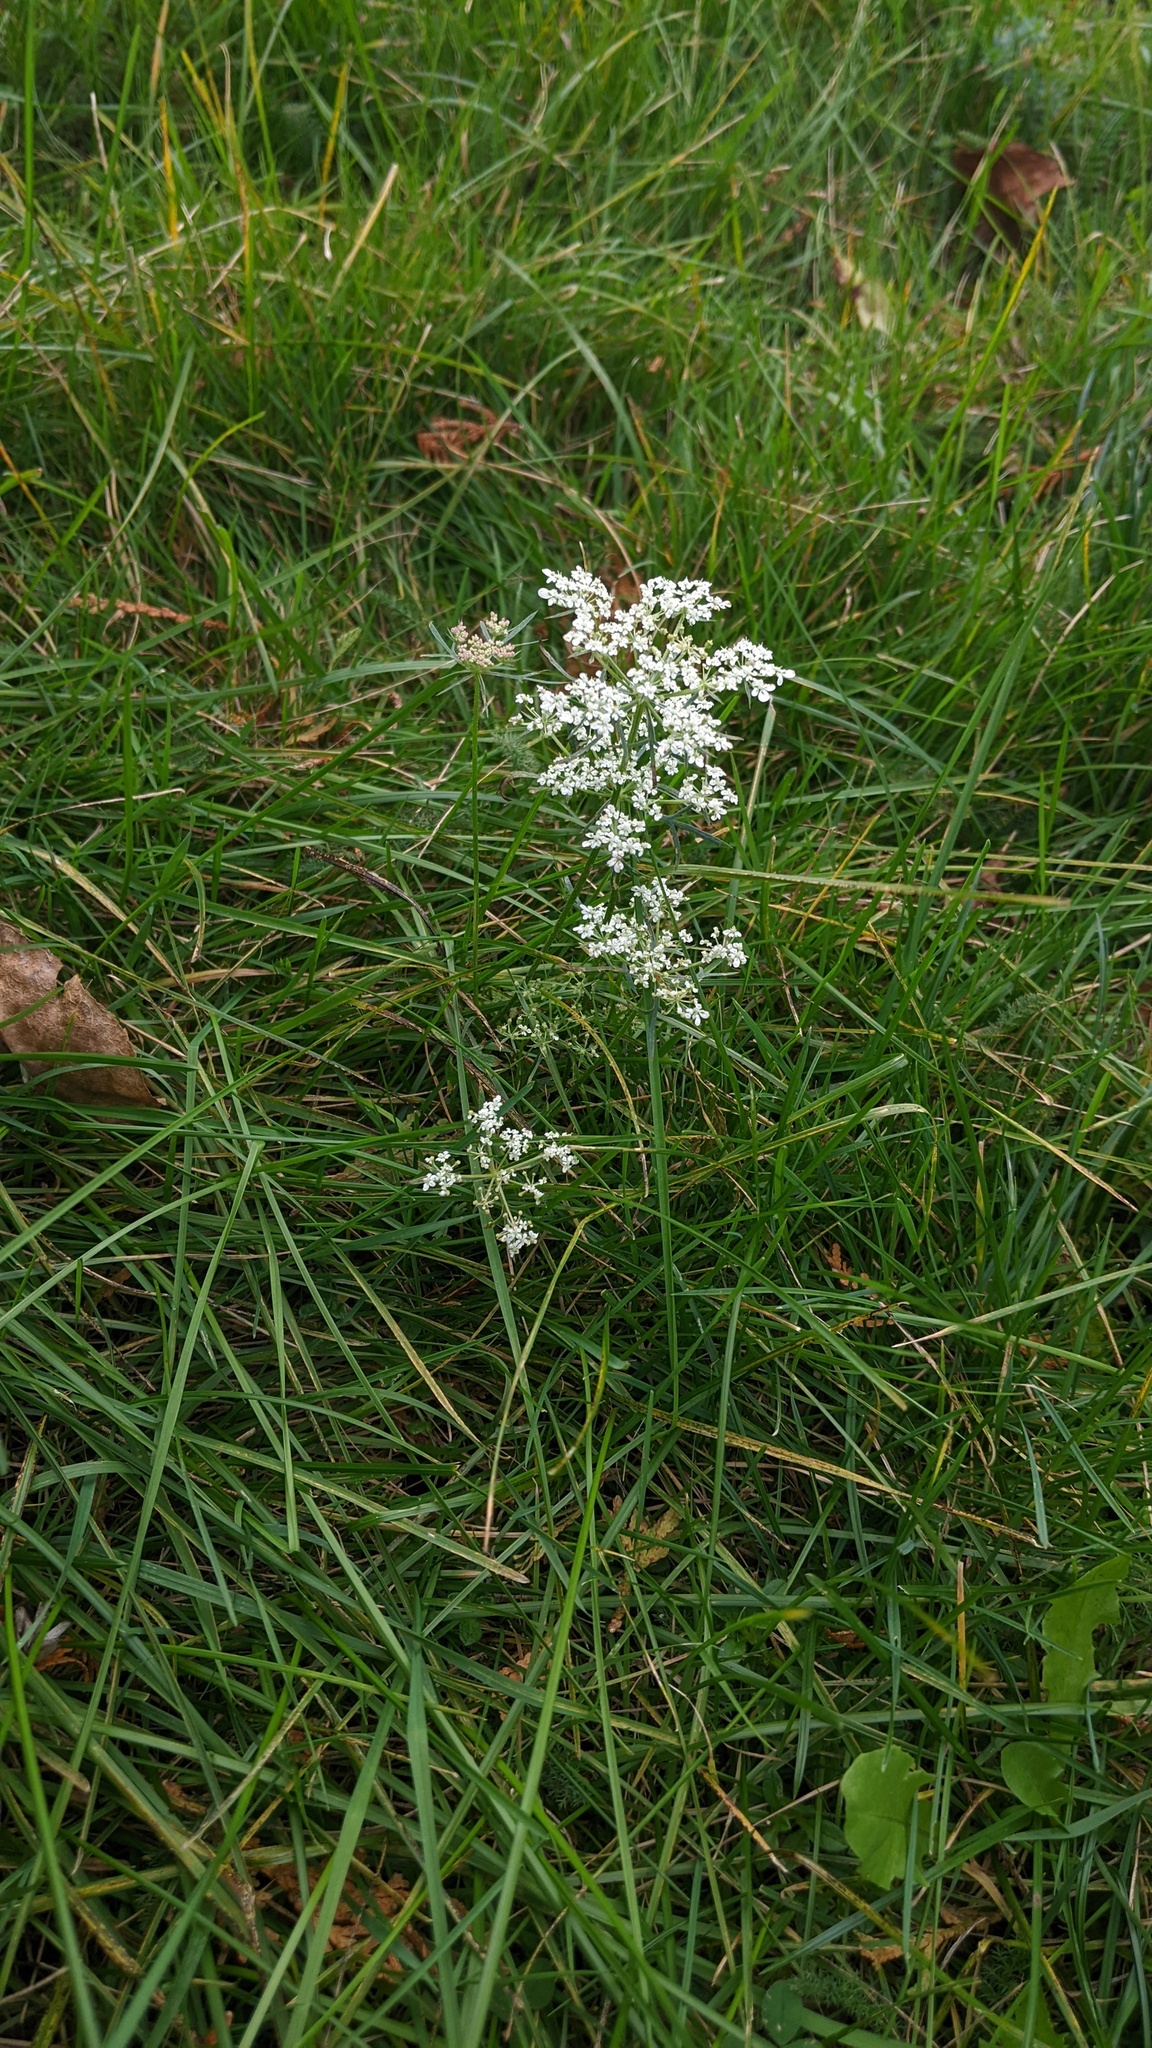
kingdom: Plantae
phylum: Tracheophyta
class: Magnoliopsida
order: Apiales
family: Apiaceae
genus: Daucus
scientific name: Daucus carota
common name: Wild carrot
